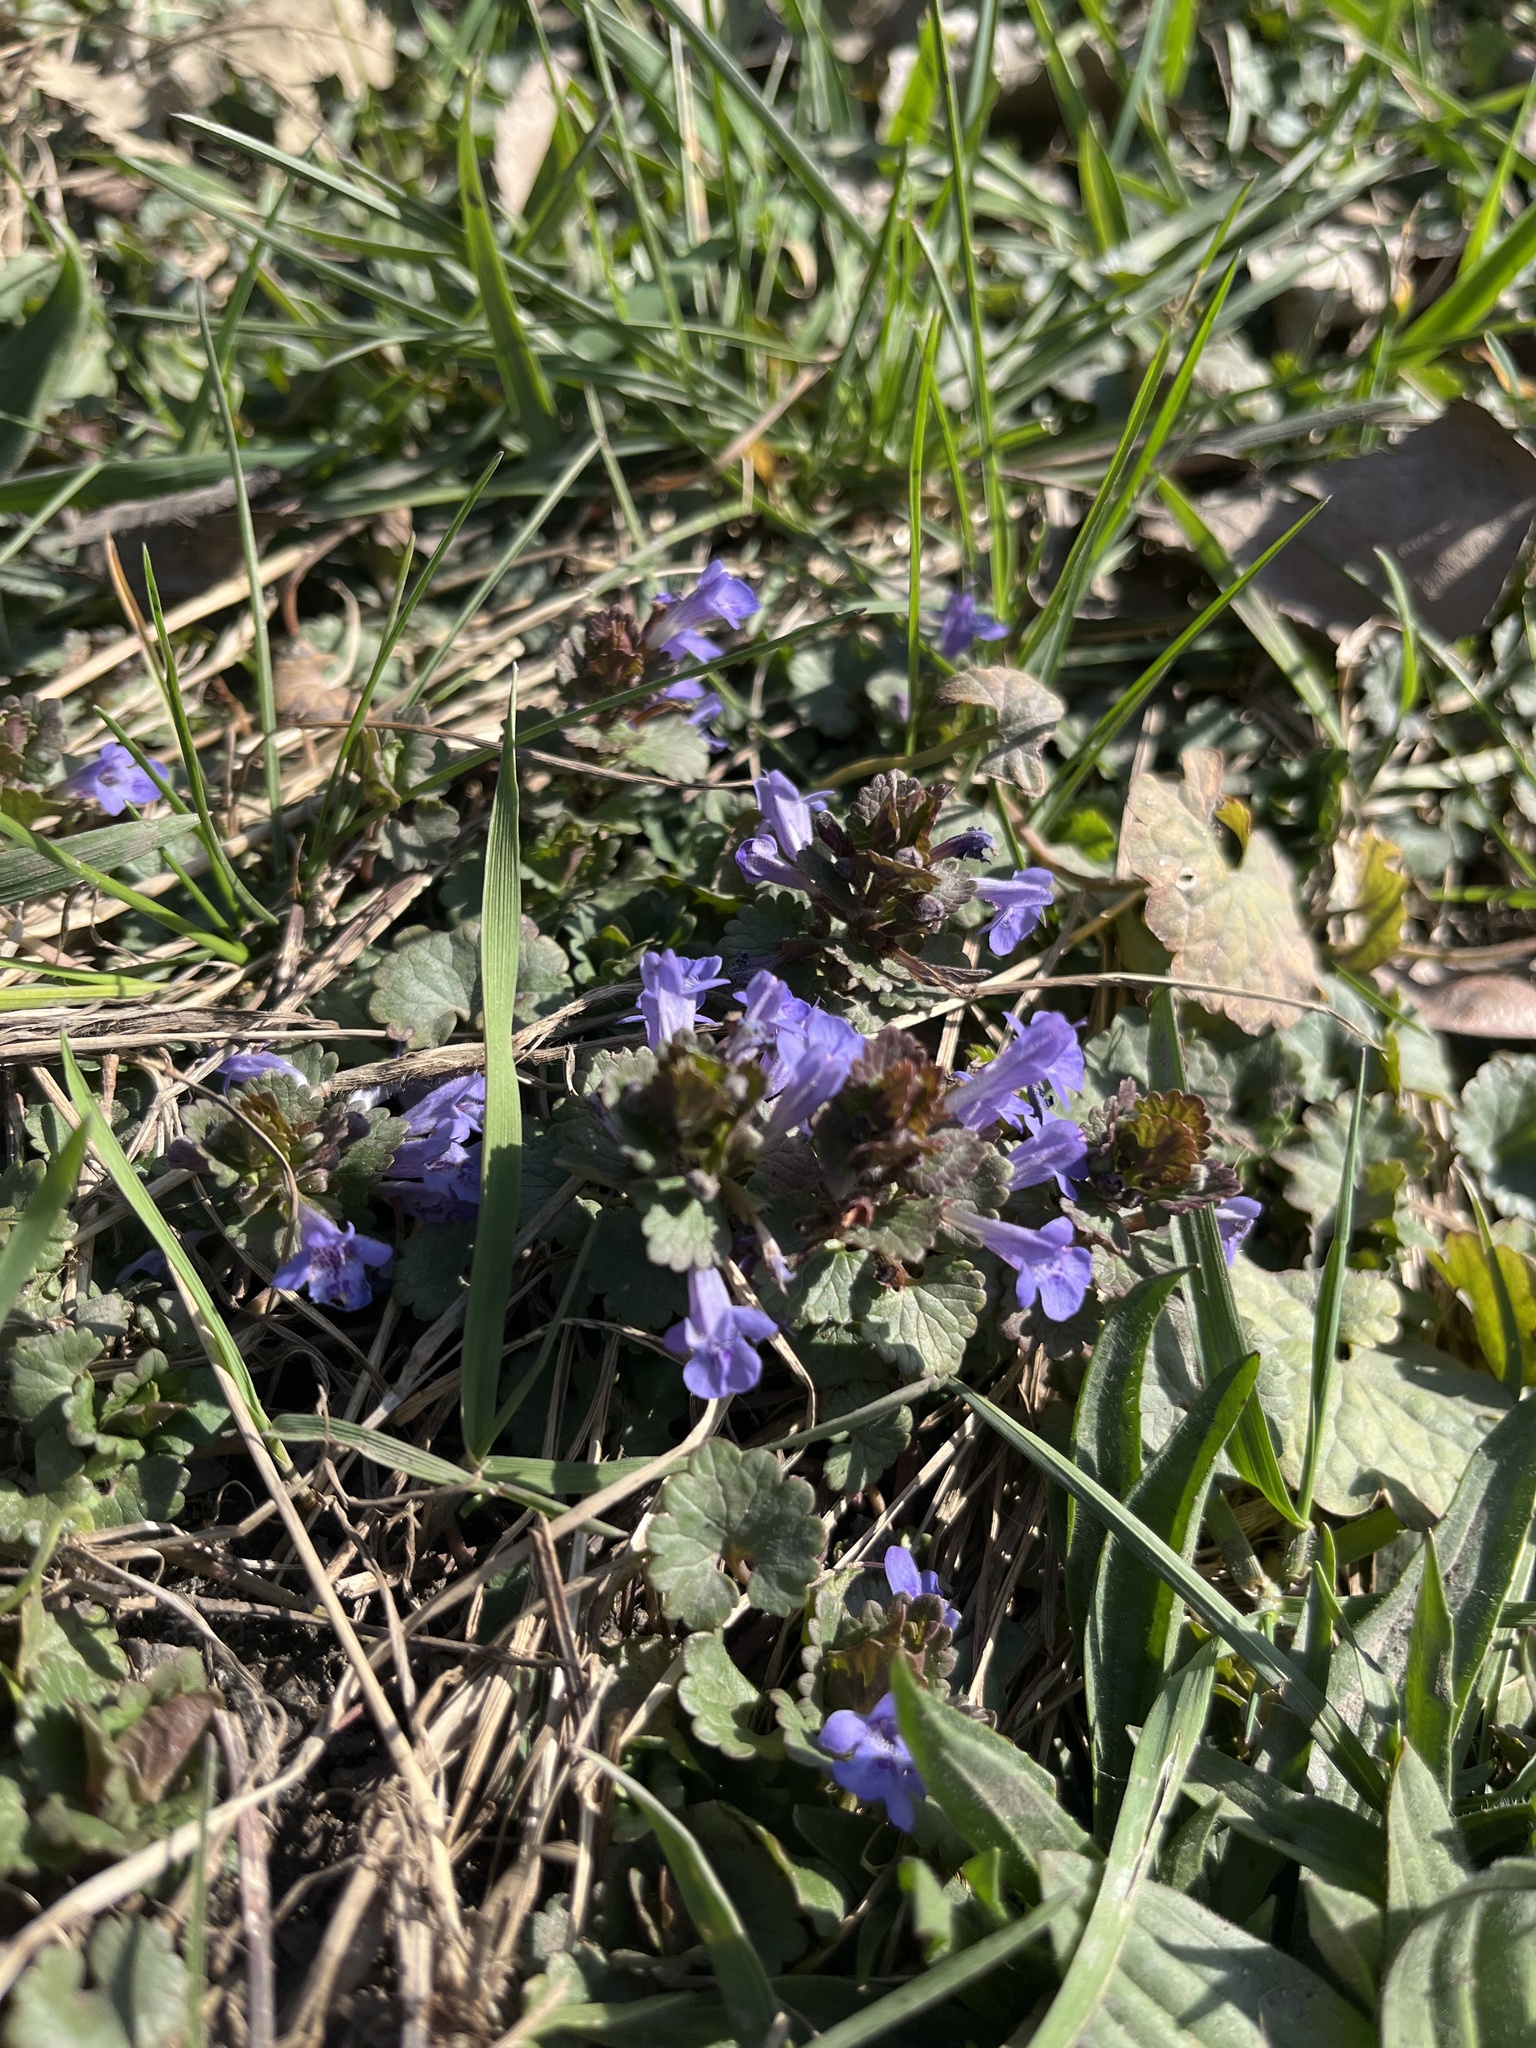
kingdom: Plantae
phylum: Tracheophyta
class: Magnoliopsida
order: Lamiales
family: Lamiaceae
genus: Glechoma
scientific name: Glechoma hederacea
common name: Ground ivy
